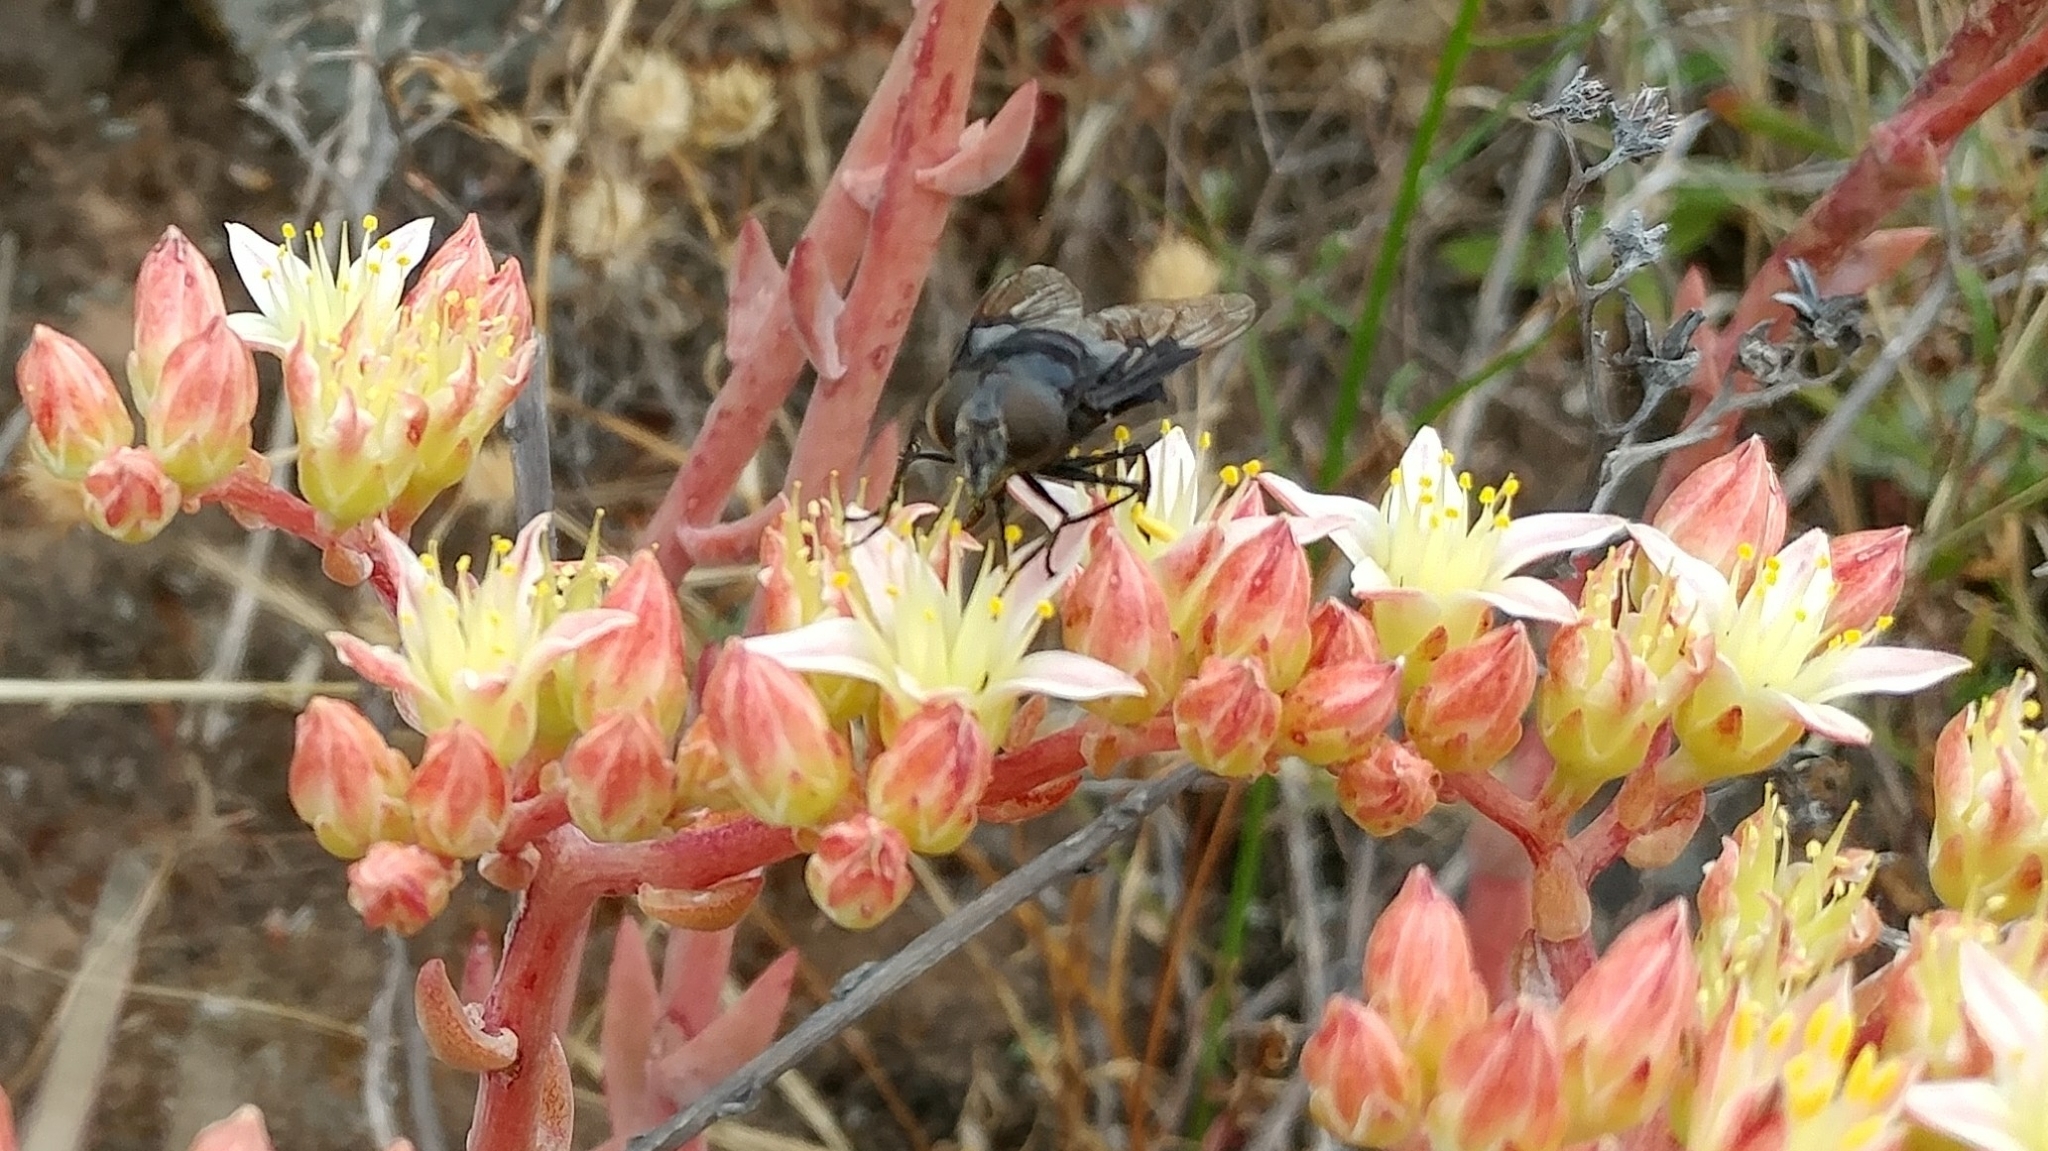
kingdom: Animalia
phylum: Arthropoda
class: Insecta
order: Diptera
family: Syrphidae
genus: Copestylum
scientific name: Copestylum violaceum
